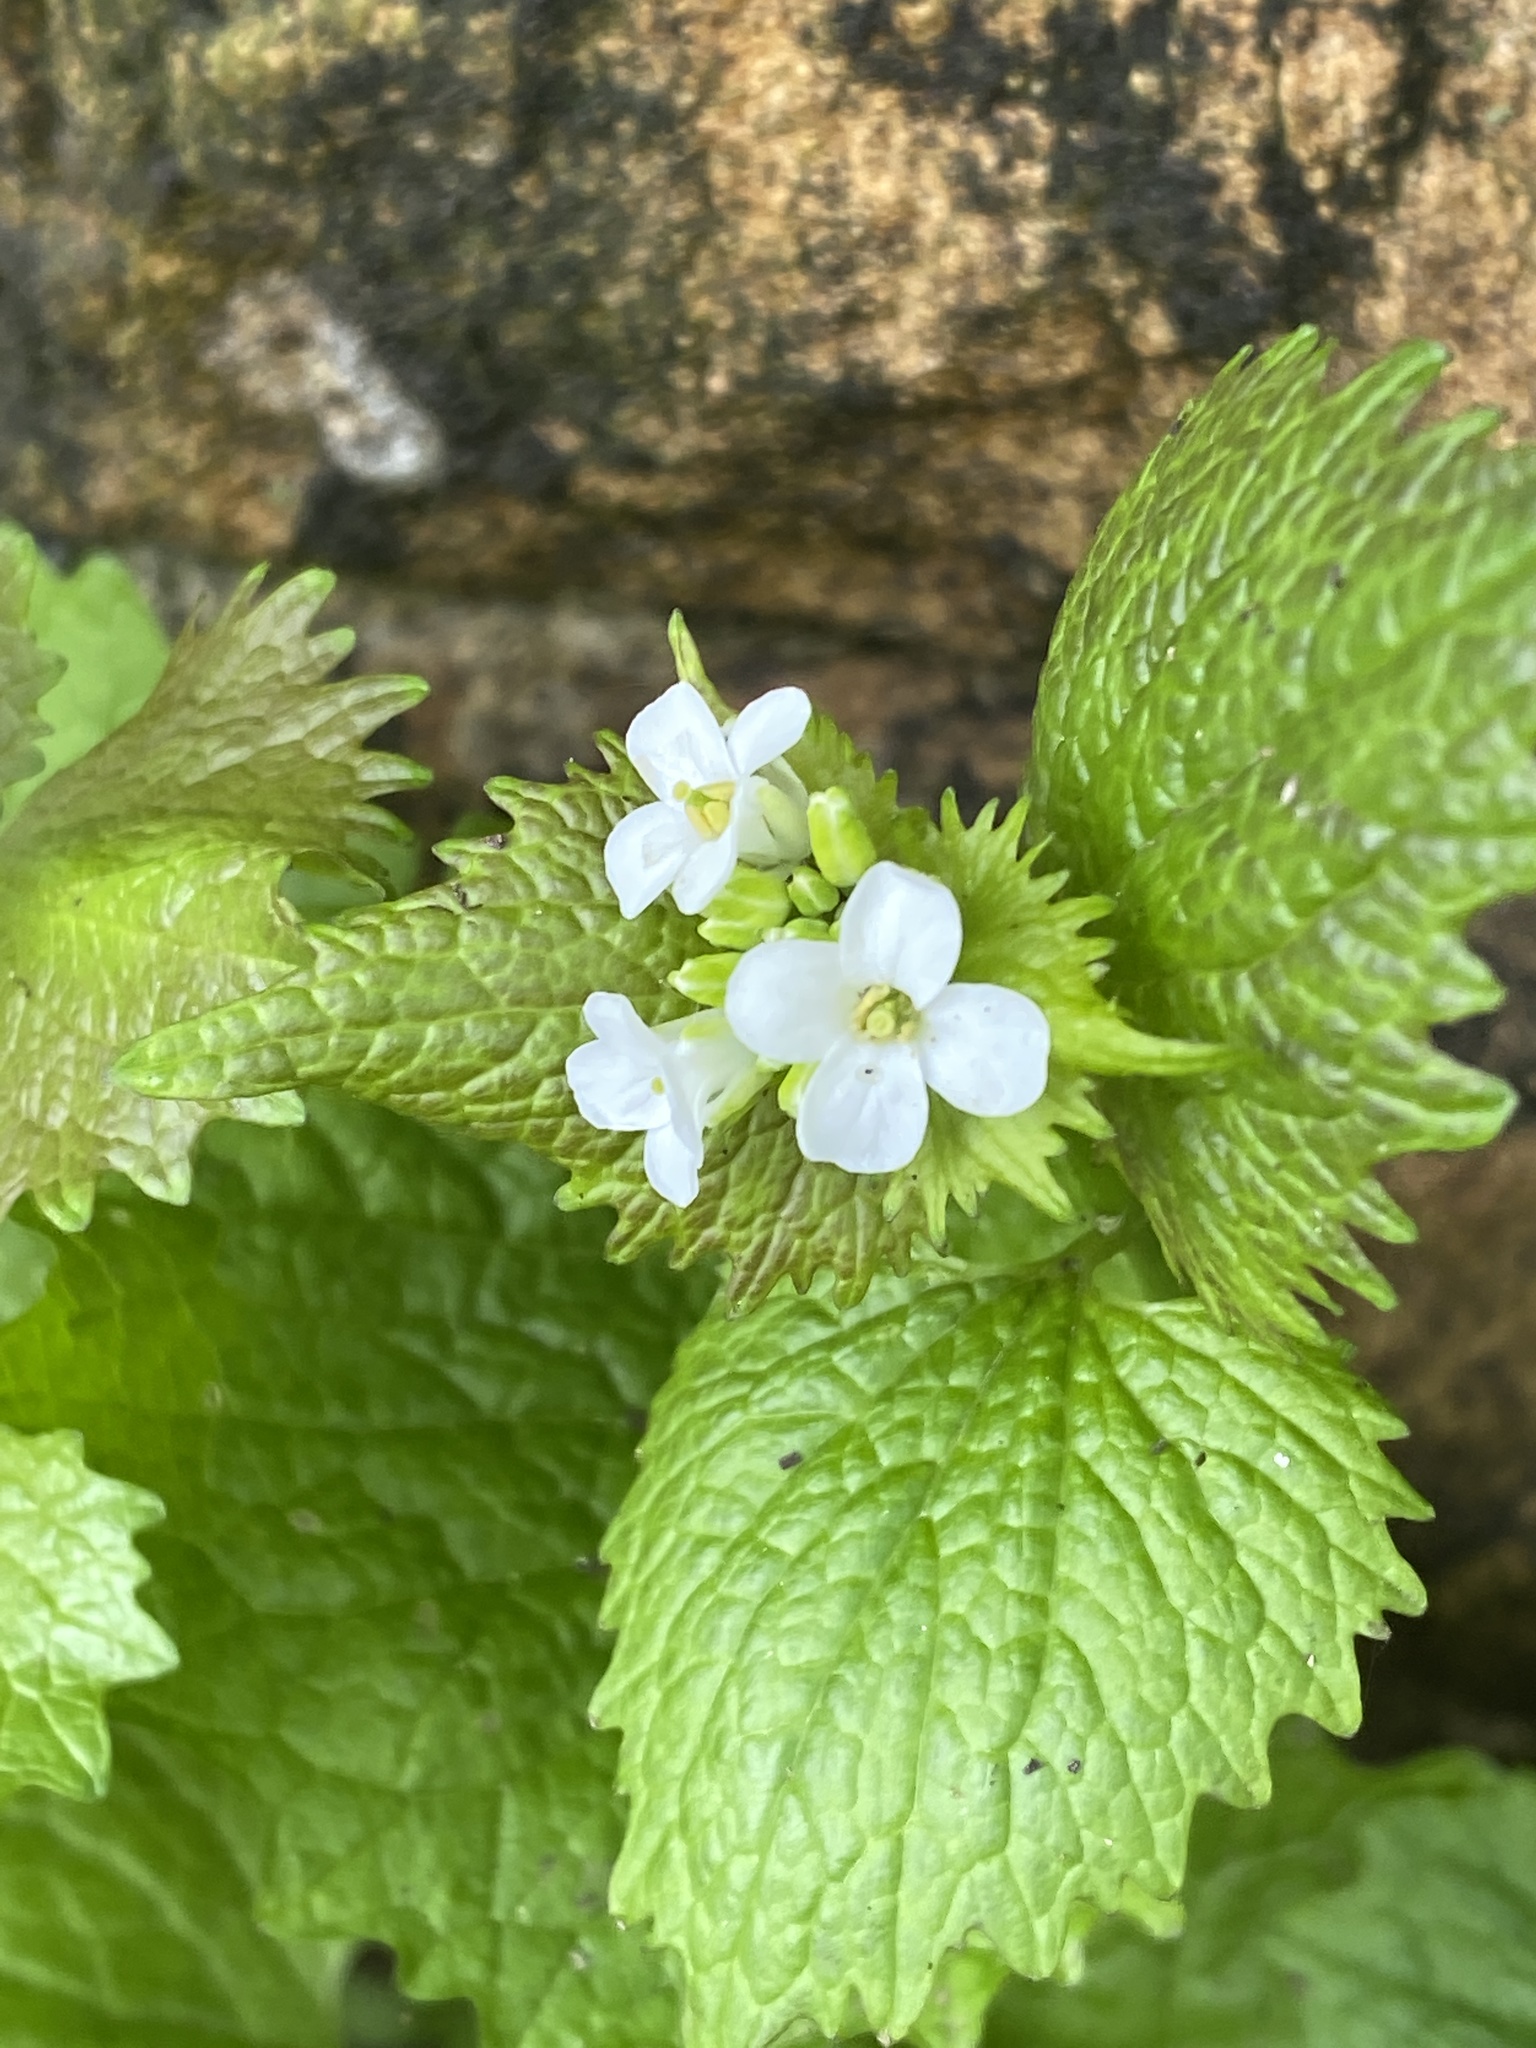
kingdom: Plantae
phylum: Tracheophyta
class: Magnoliopsida
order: Brassicales
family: Brassicaceae
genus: Alliaria
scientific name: Alliaria petiolata
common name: Garlic mustard
